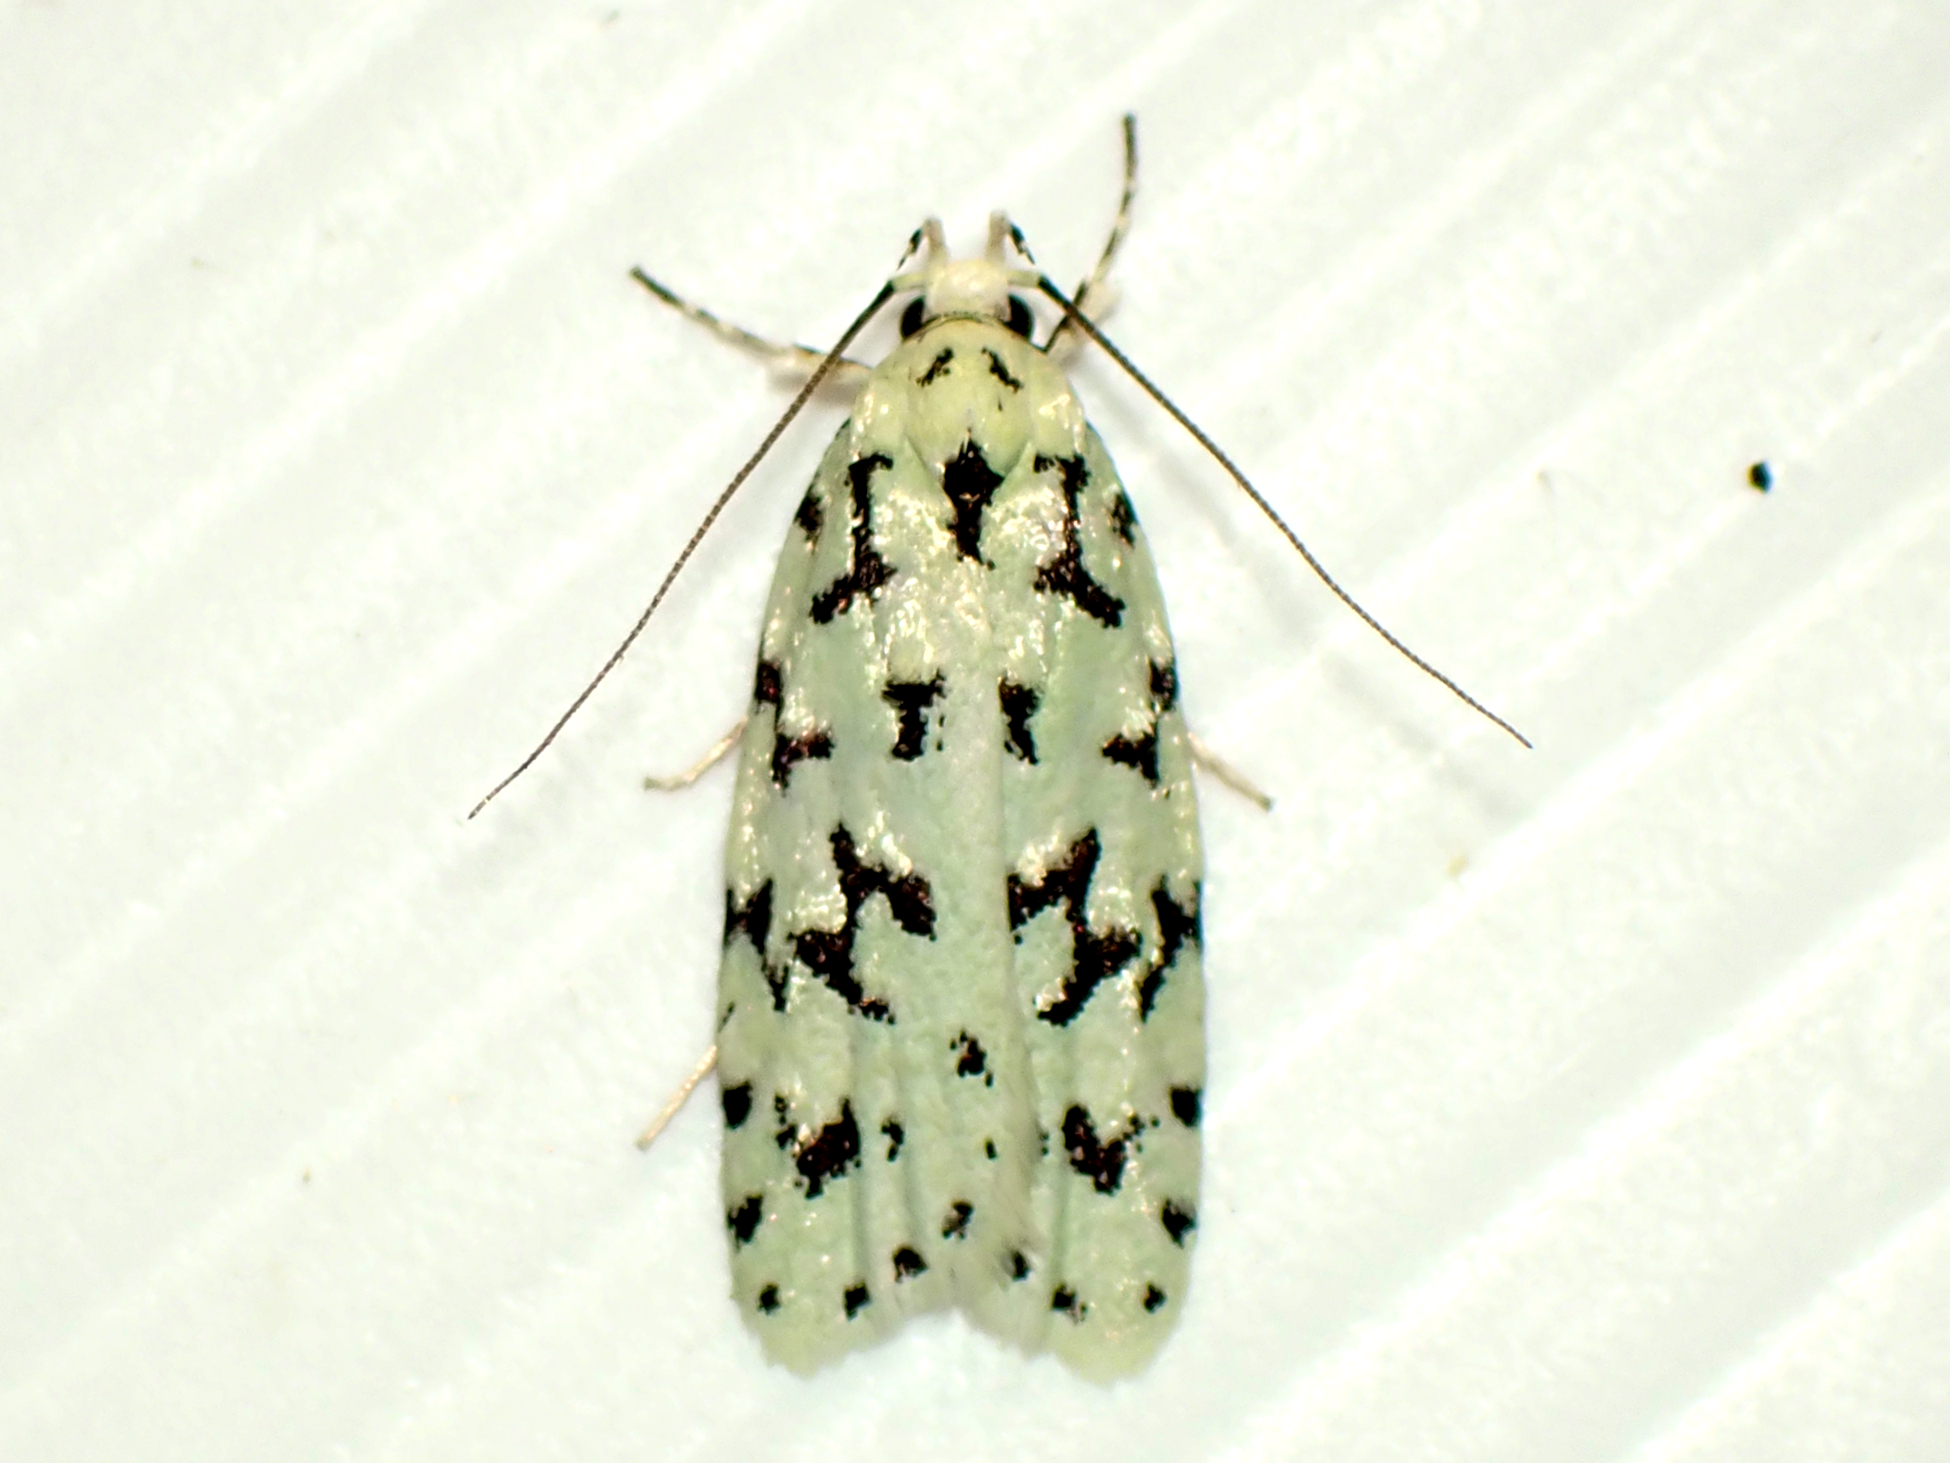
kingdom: Animalia
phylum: Arthropoda
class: Insecta
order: Lepidoptera
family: Oecophoridae
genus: Izatha
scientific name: Izatha huttoni
